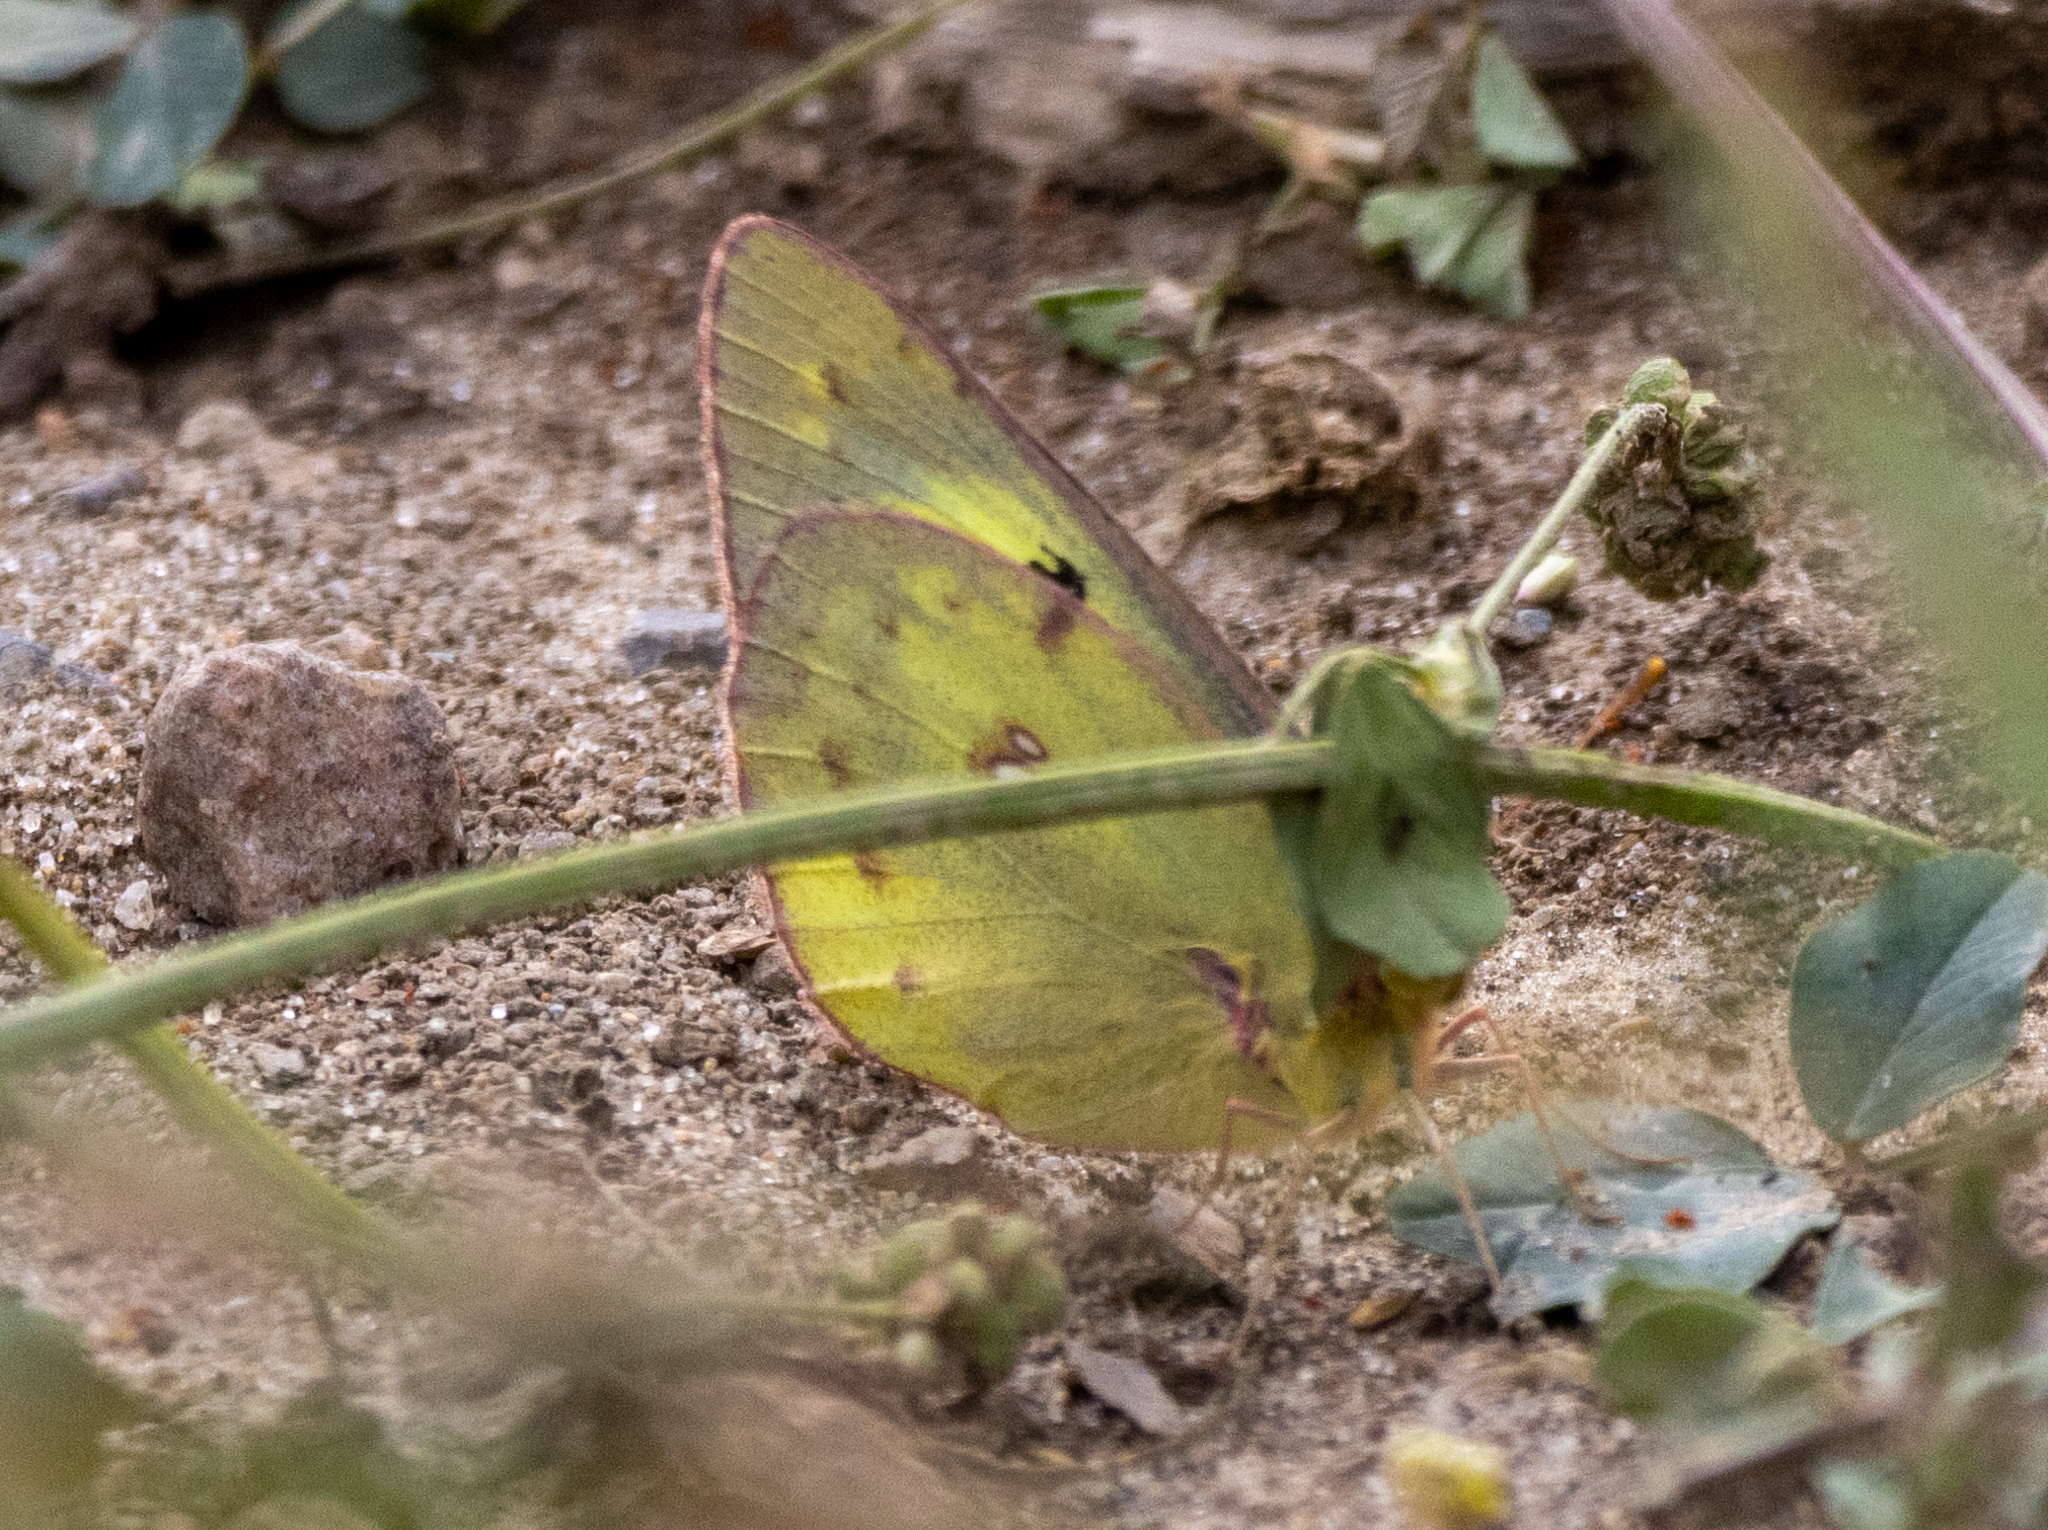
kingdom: Animalia
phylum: Arthropoda
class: Insecta
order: Lepidoptera
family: Pieridae
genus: Colias
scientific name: Colias philodice
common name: Clouded sulphur
